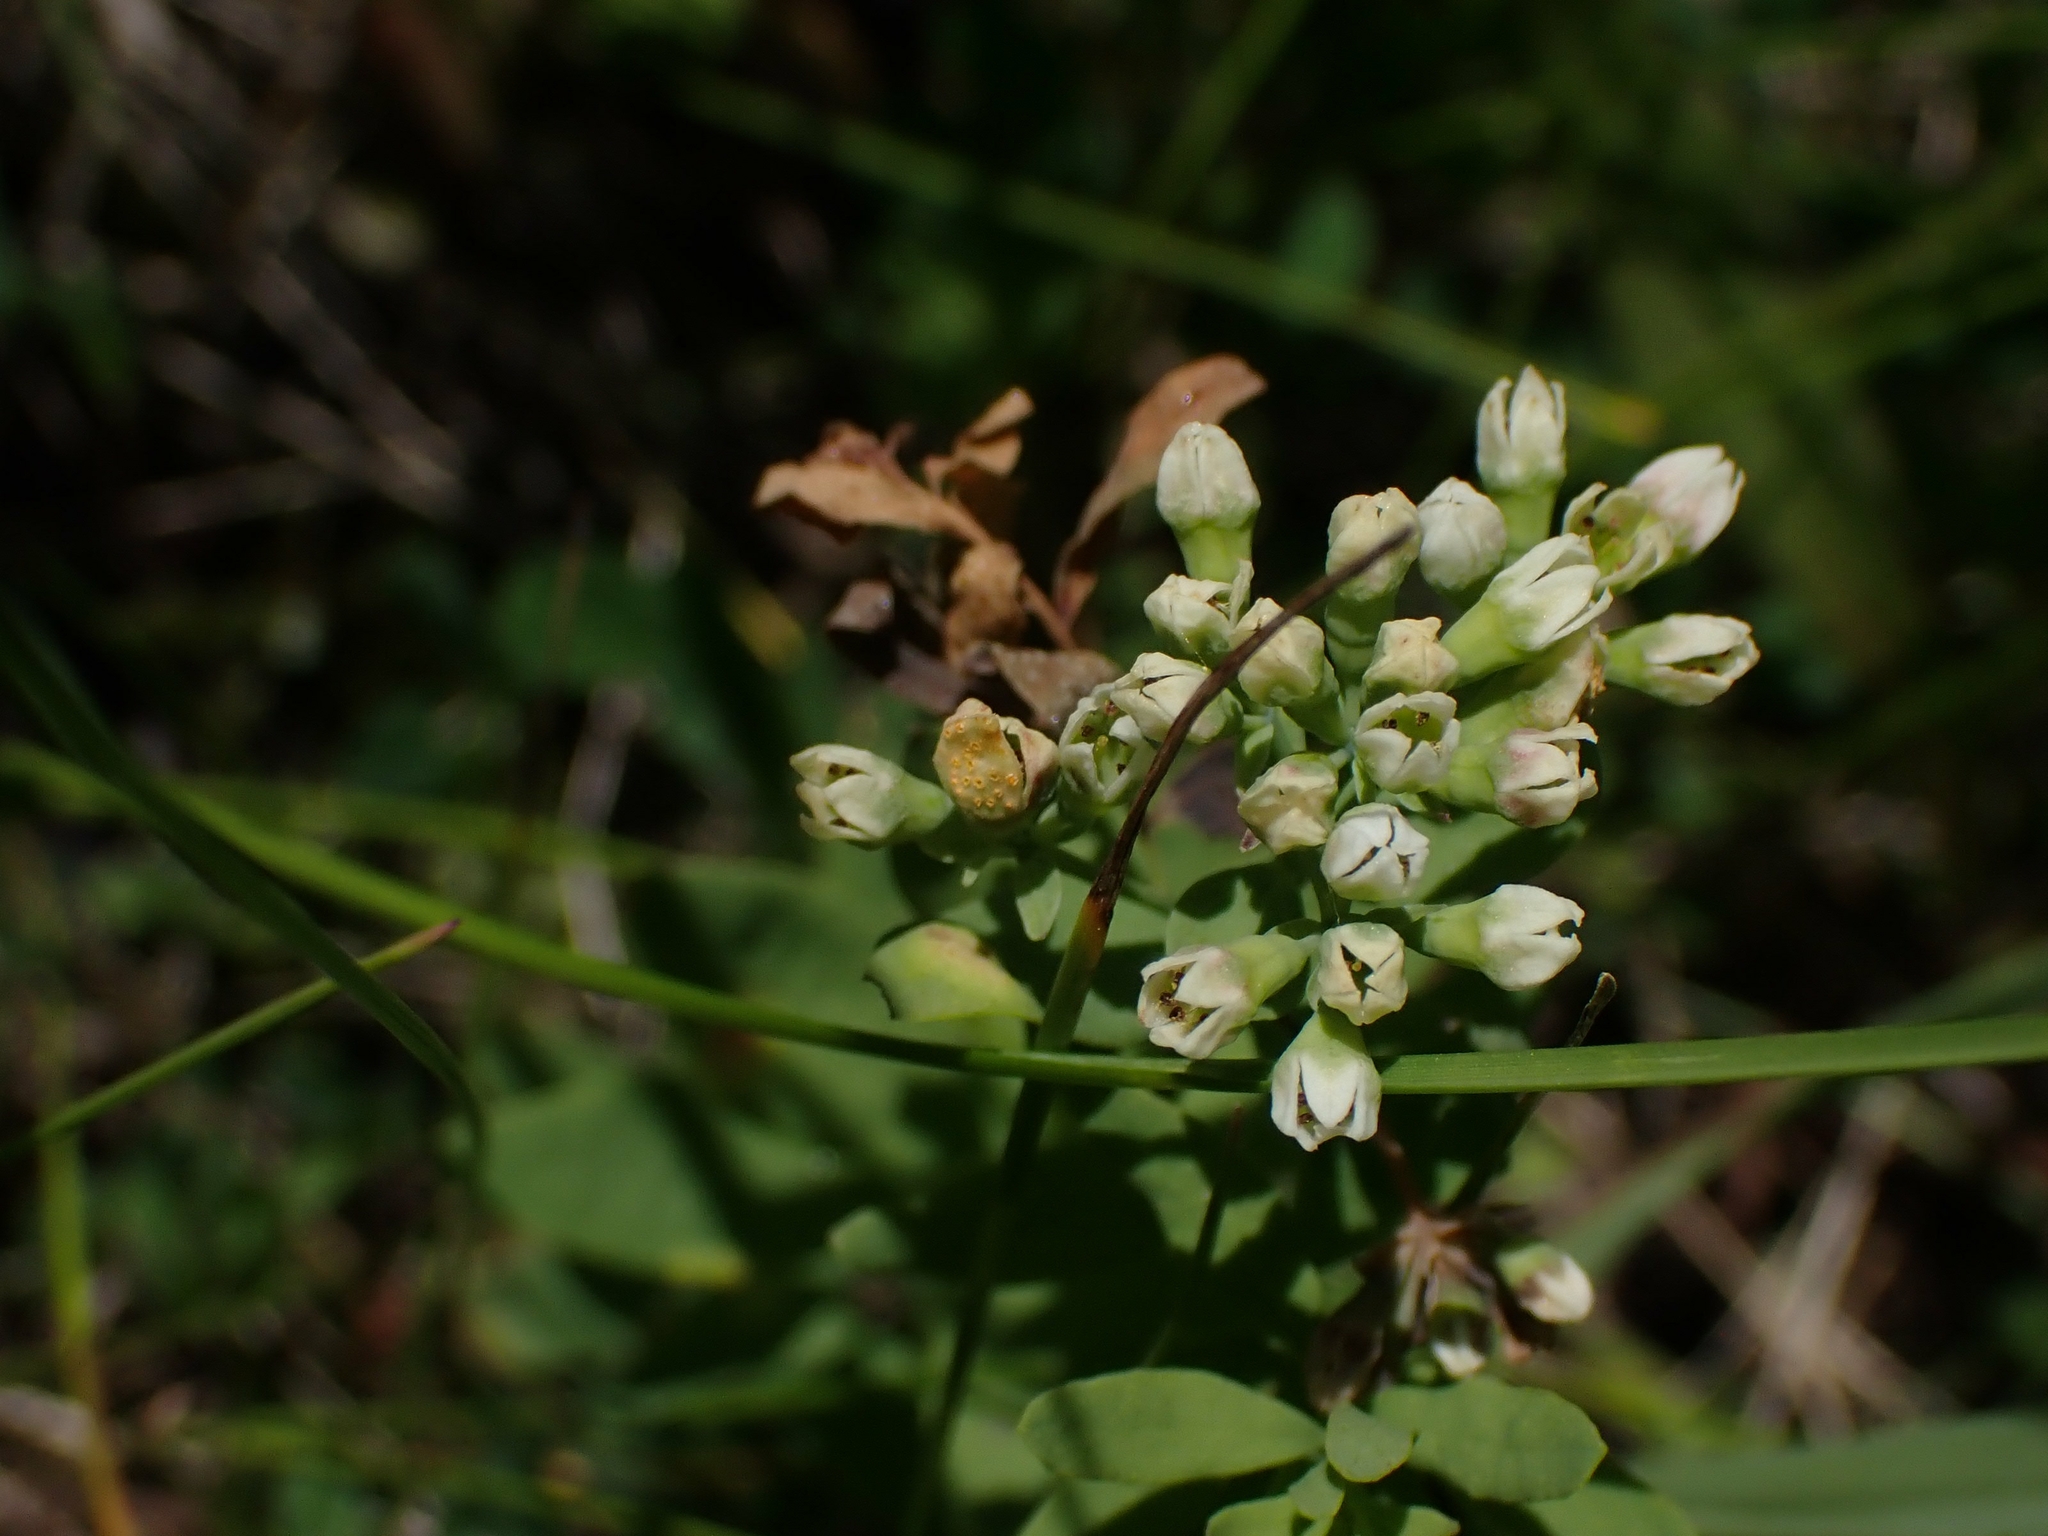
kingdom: Plantae
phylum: Tracheophyta
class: Magnoliopsida
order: Santalales
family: Comandraceae
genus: Comandra
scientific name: Comandra umbellata
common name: Bastard toadflax
